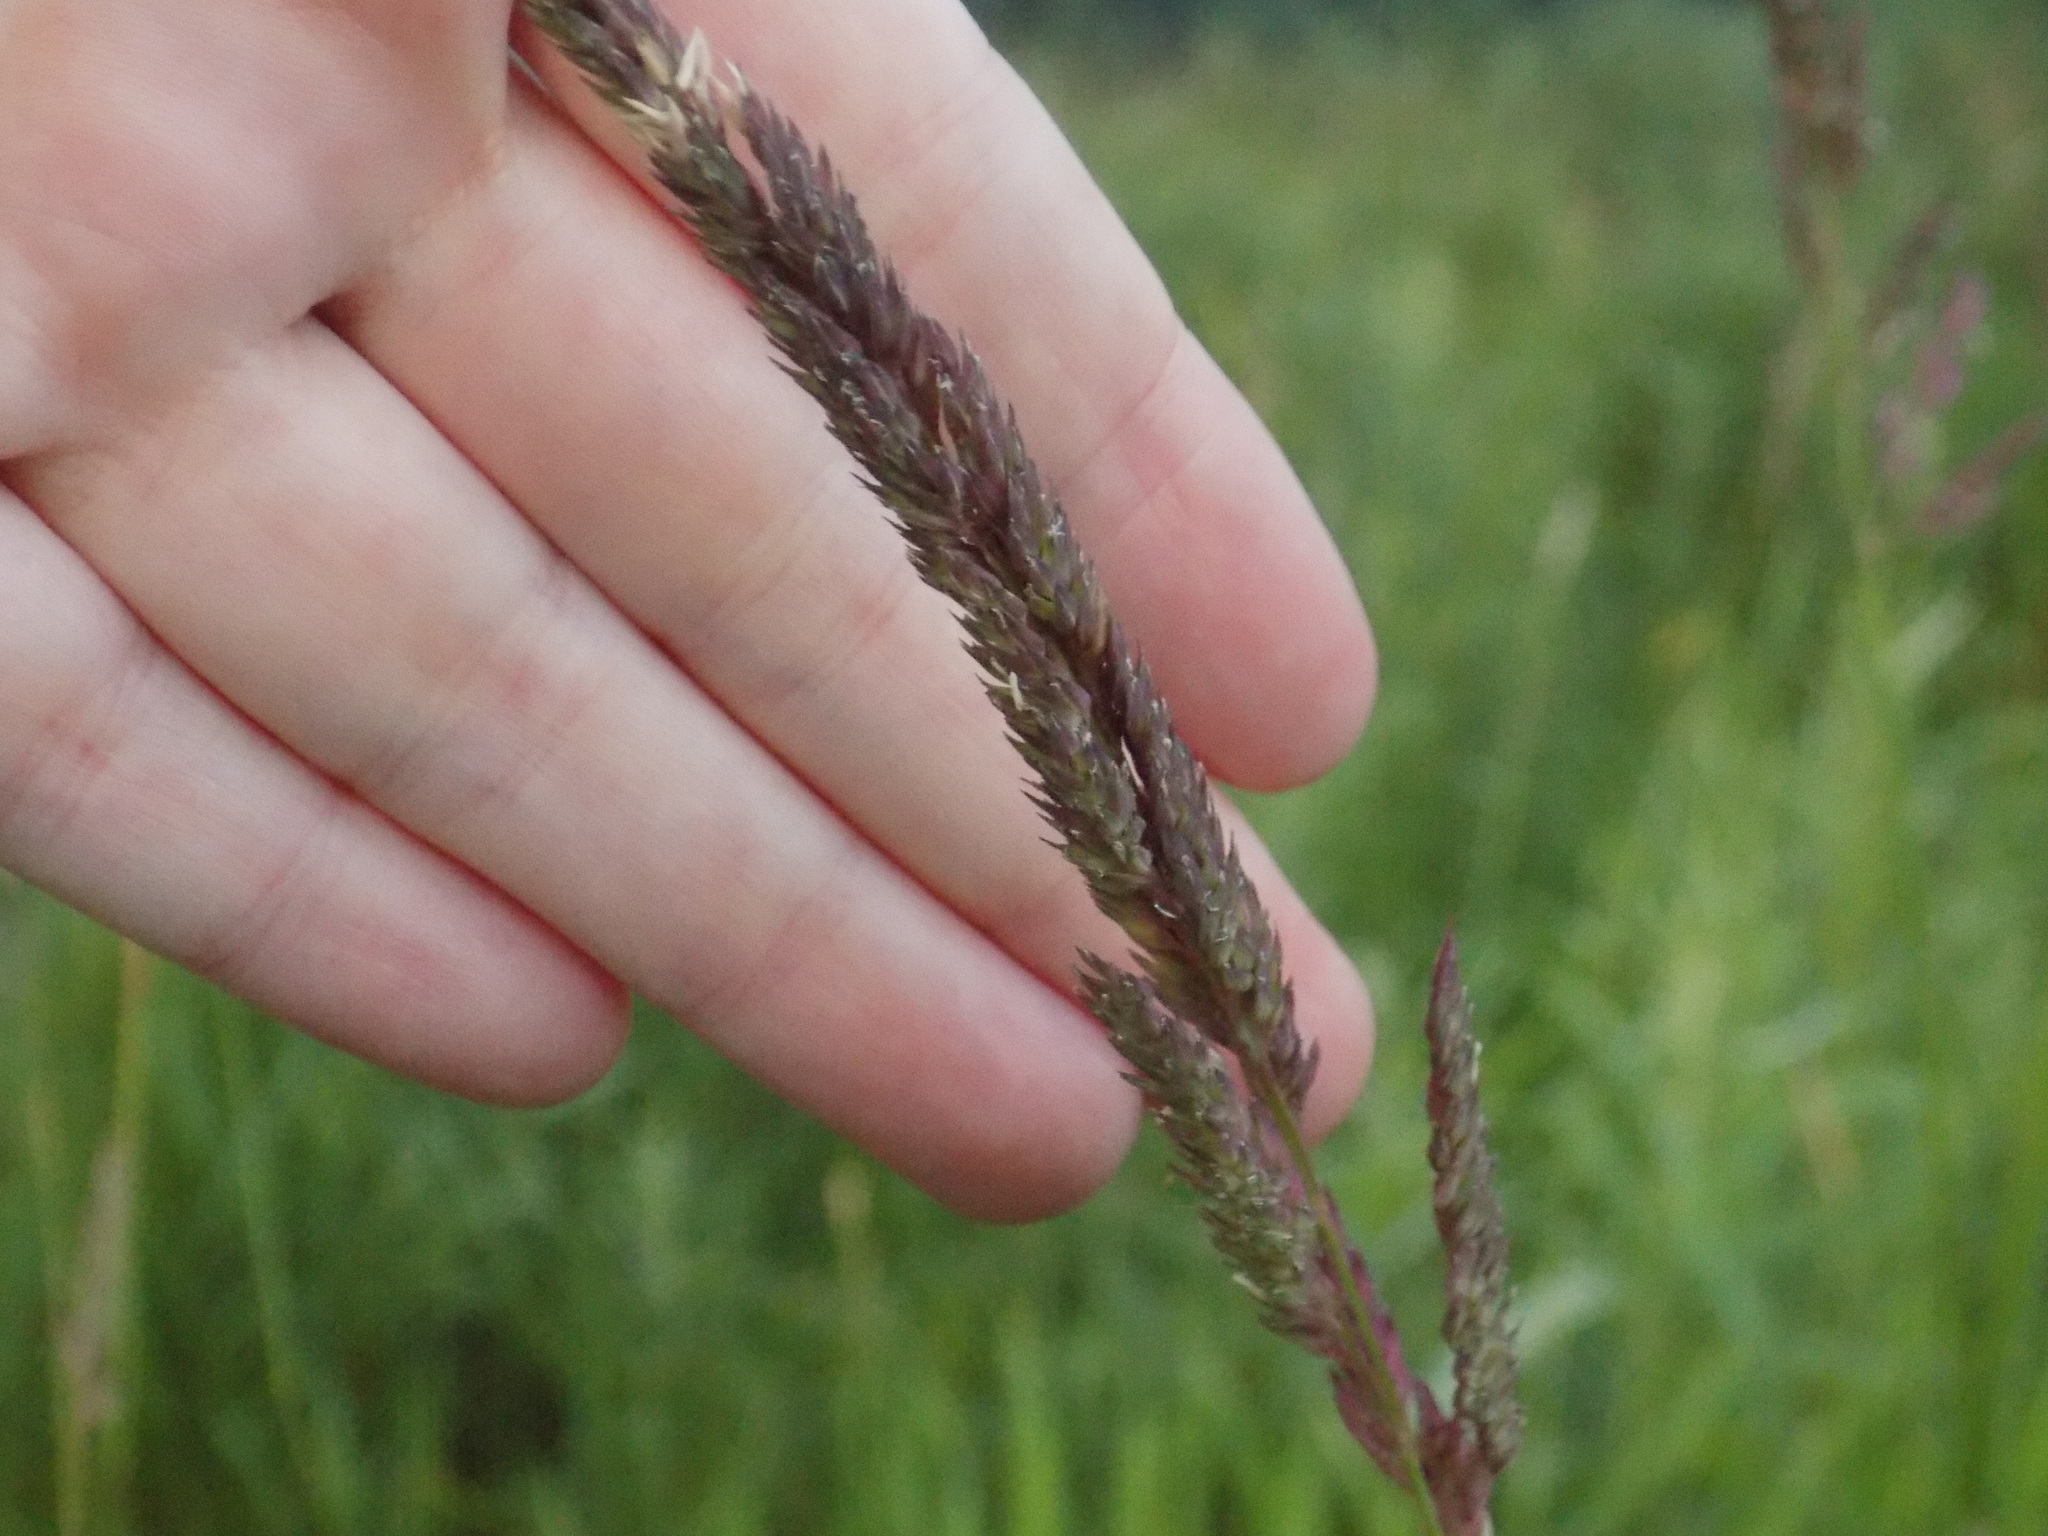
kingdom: Plantae
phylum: Tracheophyta
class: Liliopsida
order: Poales
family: Poaceae
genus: Phalaris
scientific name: Phalaris arundinacea
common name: Reed canary-grass
